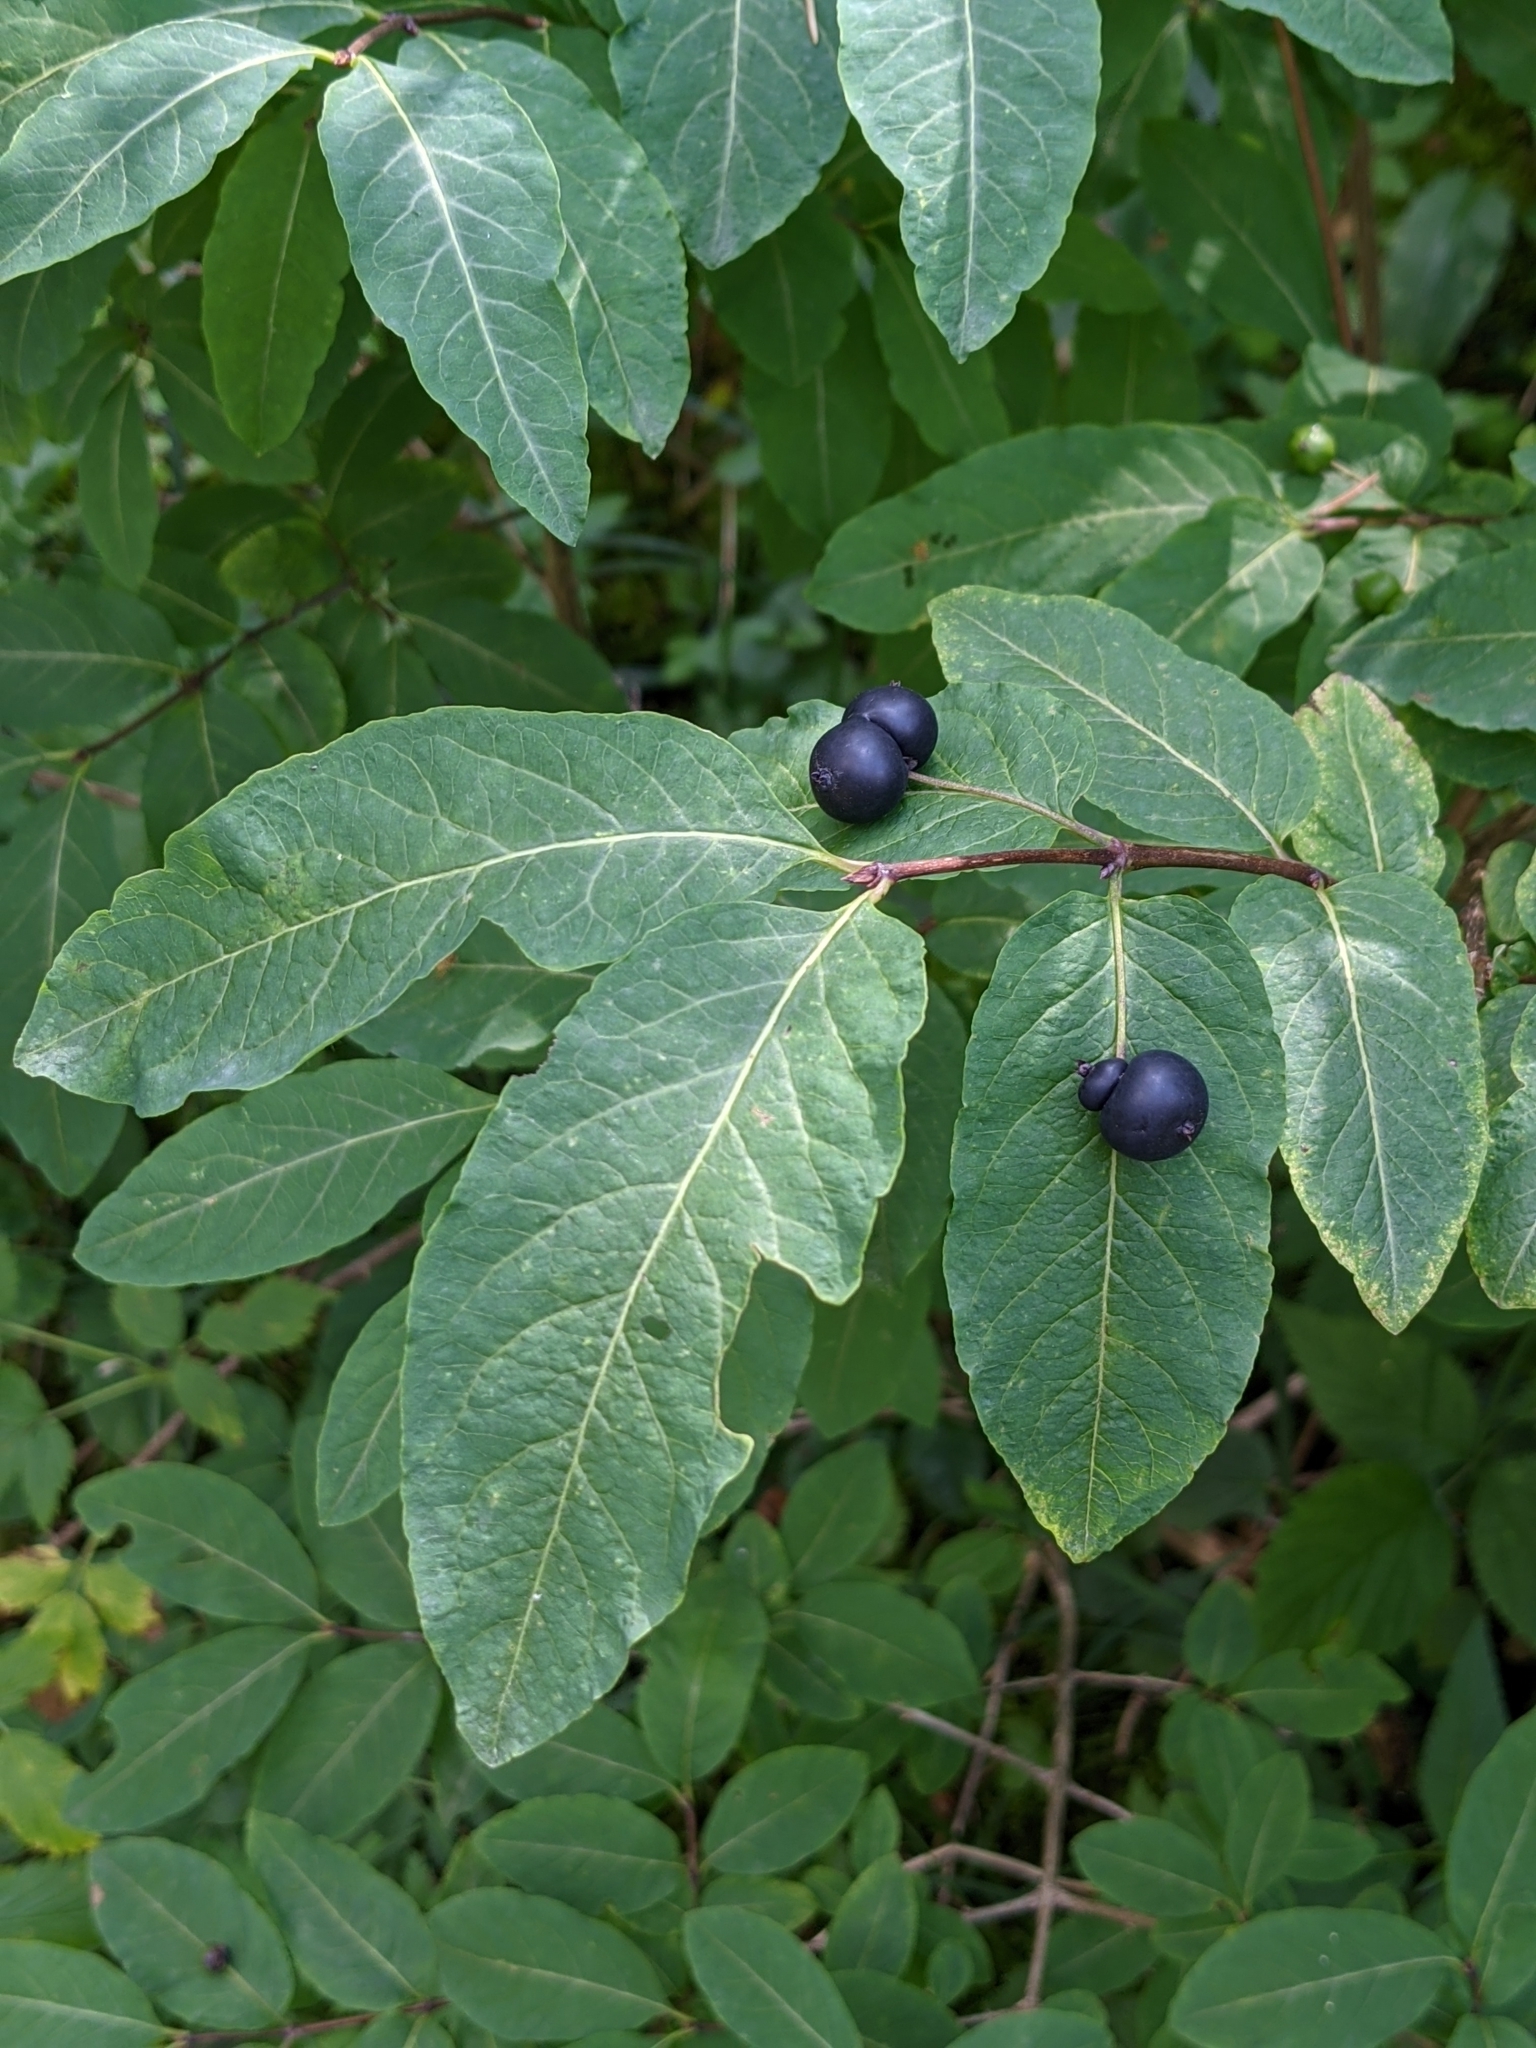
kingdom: Plantae
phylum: Tracheophyta
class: Magnoliopsida
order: Dipsacales
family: Caprifoliaceae
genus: Lonicera
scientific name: Lonicera nigra
